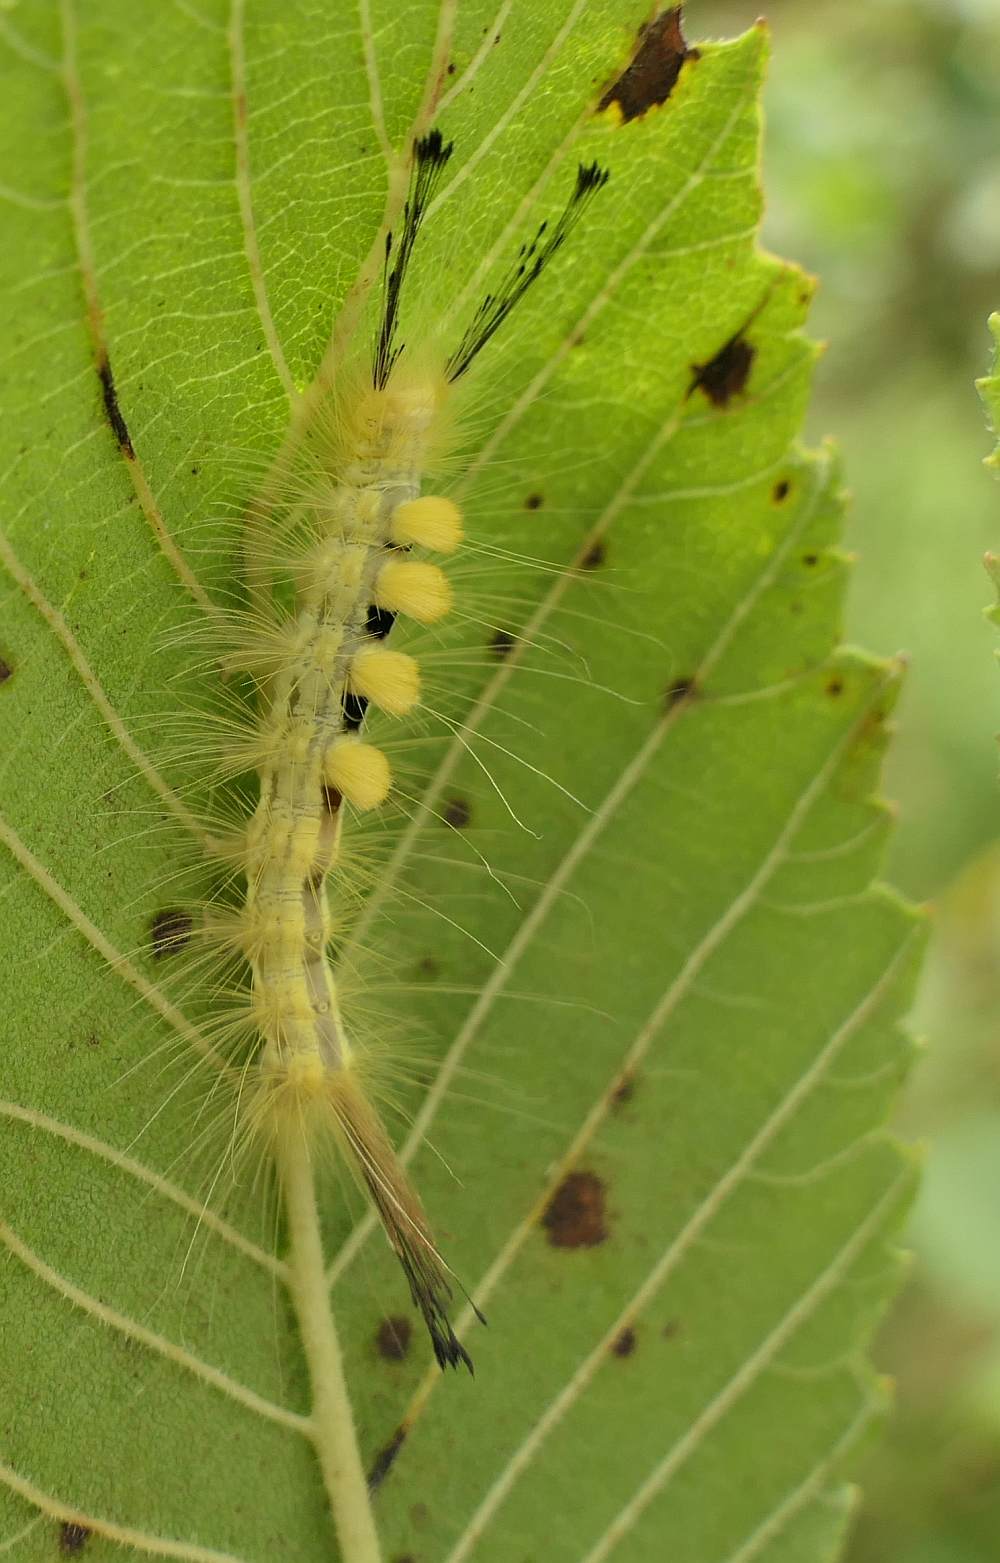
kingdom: Animalia
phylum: Arthropoda
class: Insecta
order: Lepidoptera
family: Erebidae
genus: Orgyia
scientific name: Orgyia definita
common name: Definite tussock moth
